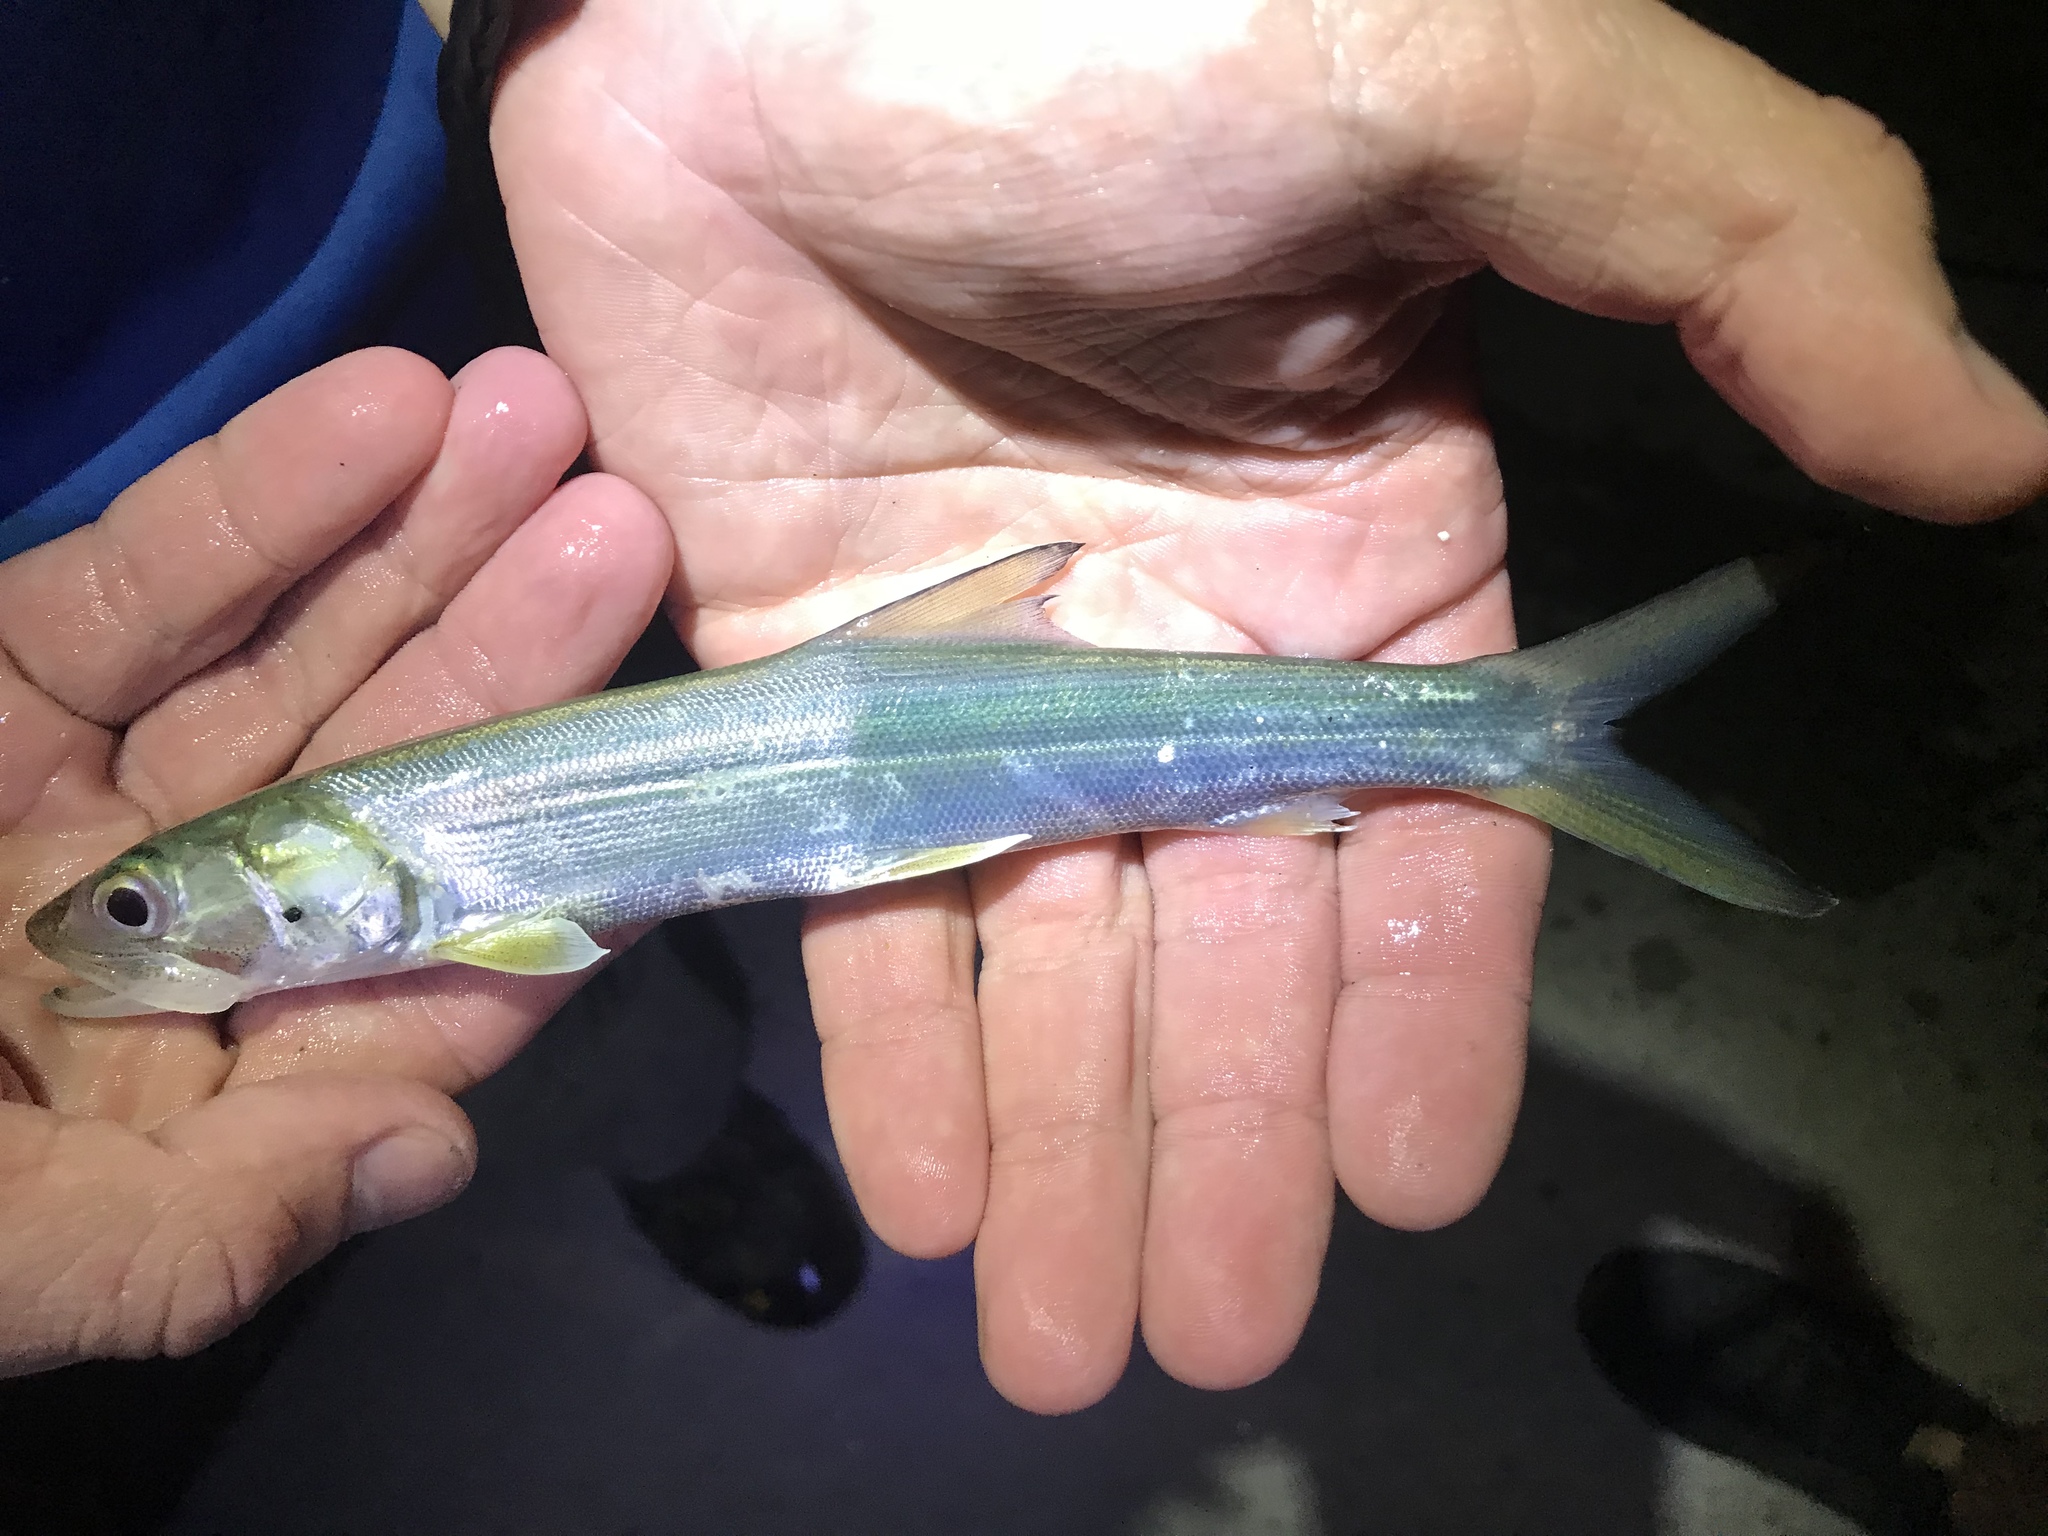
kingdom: Animalia
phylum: Chordata
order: Elopiformes
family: Elopidae
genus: Elops
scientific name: Elops saurus
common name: Ladyfish
